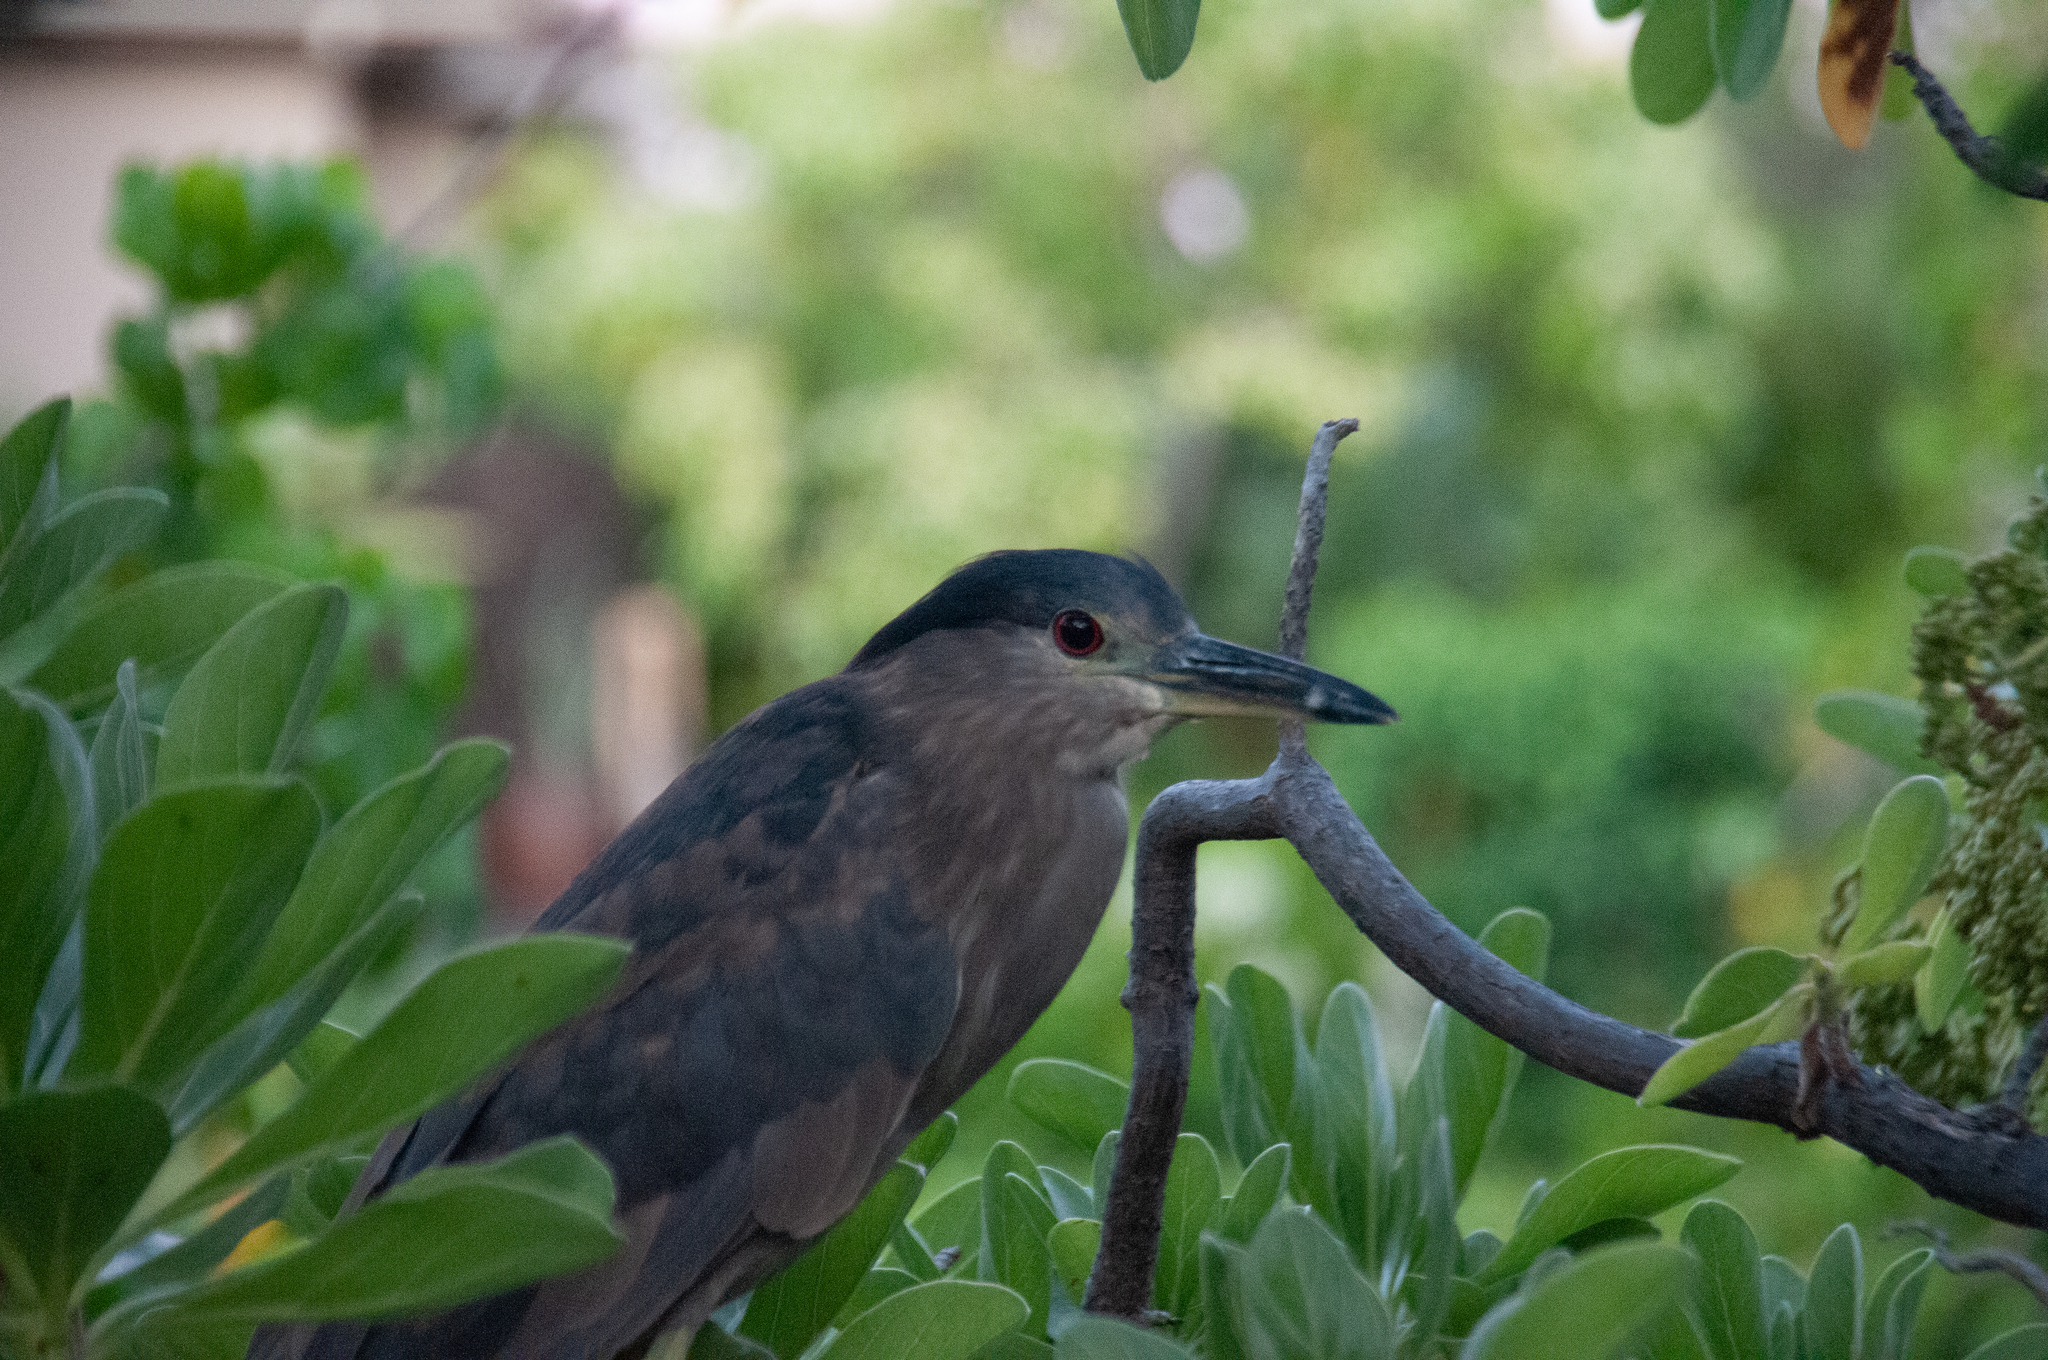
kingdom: Animalia
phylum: Chordata
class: Aves
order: Pelecaniformes
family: Ardeidae
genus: Nycticorax
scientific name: Nycticorax nycticorax
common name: Black-crowned night heron
